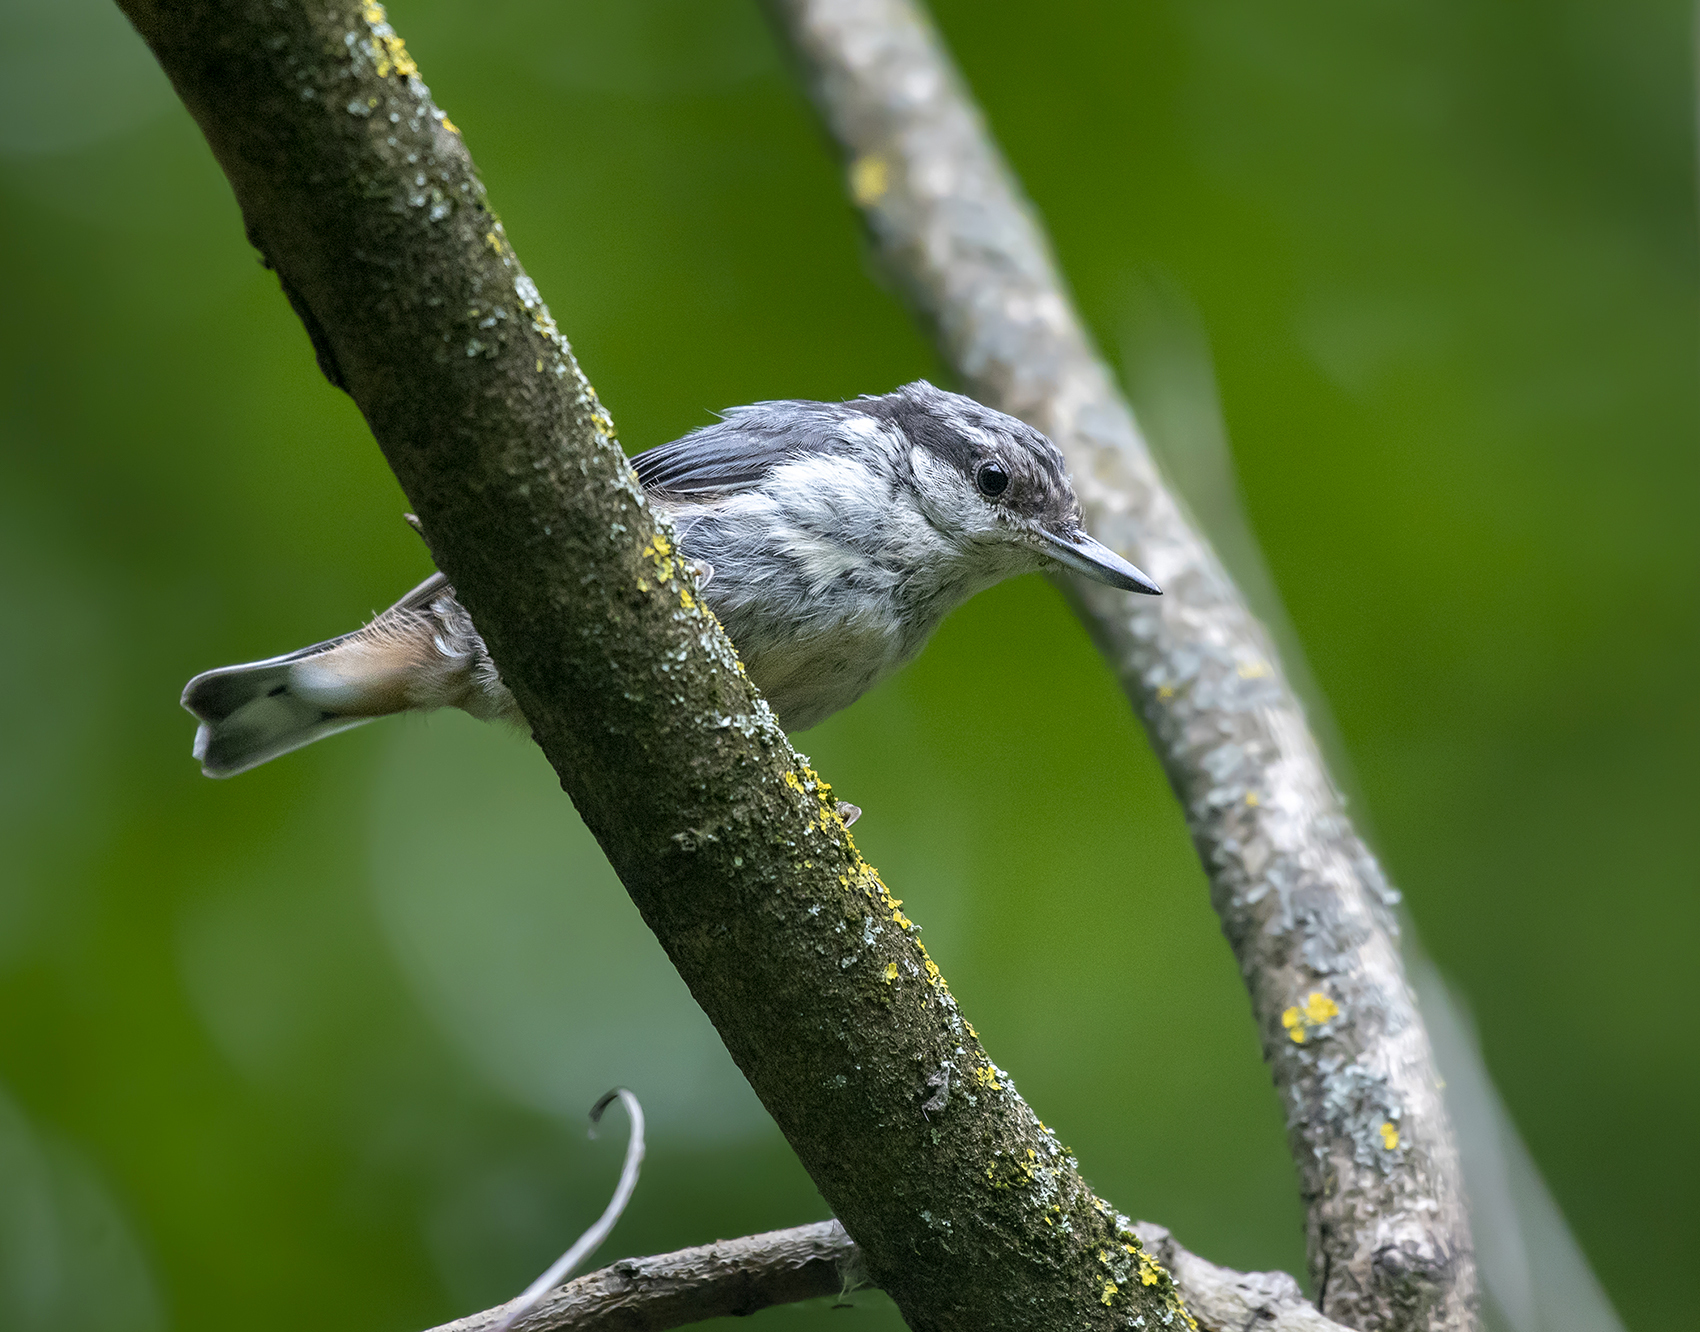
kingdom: Animalia
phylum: Chordata
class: Aves
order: Passeriformes
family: Sittidae
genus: Sitta
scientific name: Sitta europaea
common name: Eurasian nuthatch
